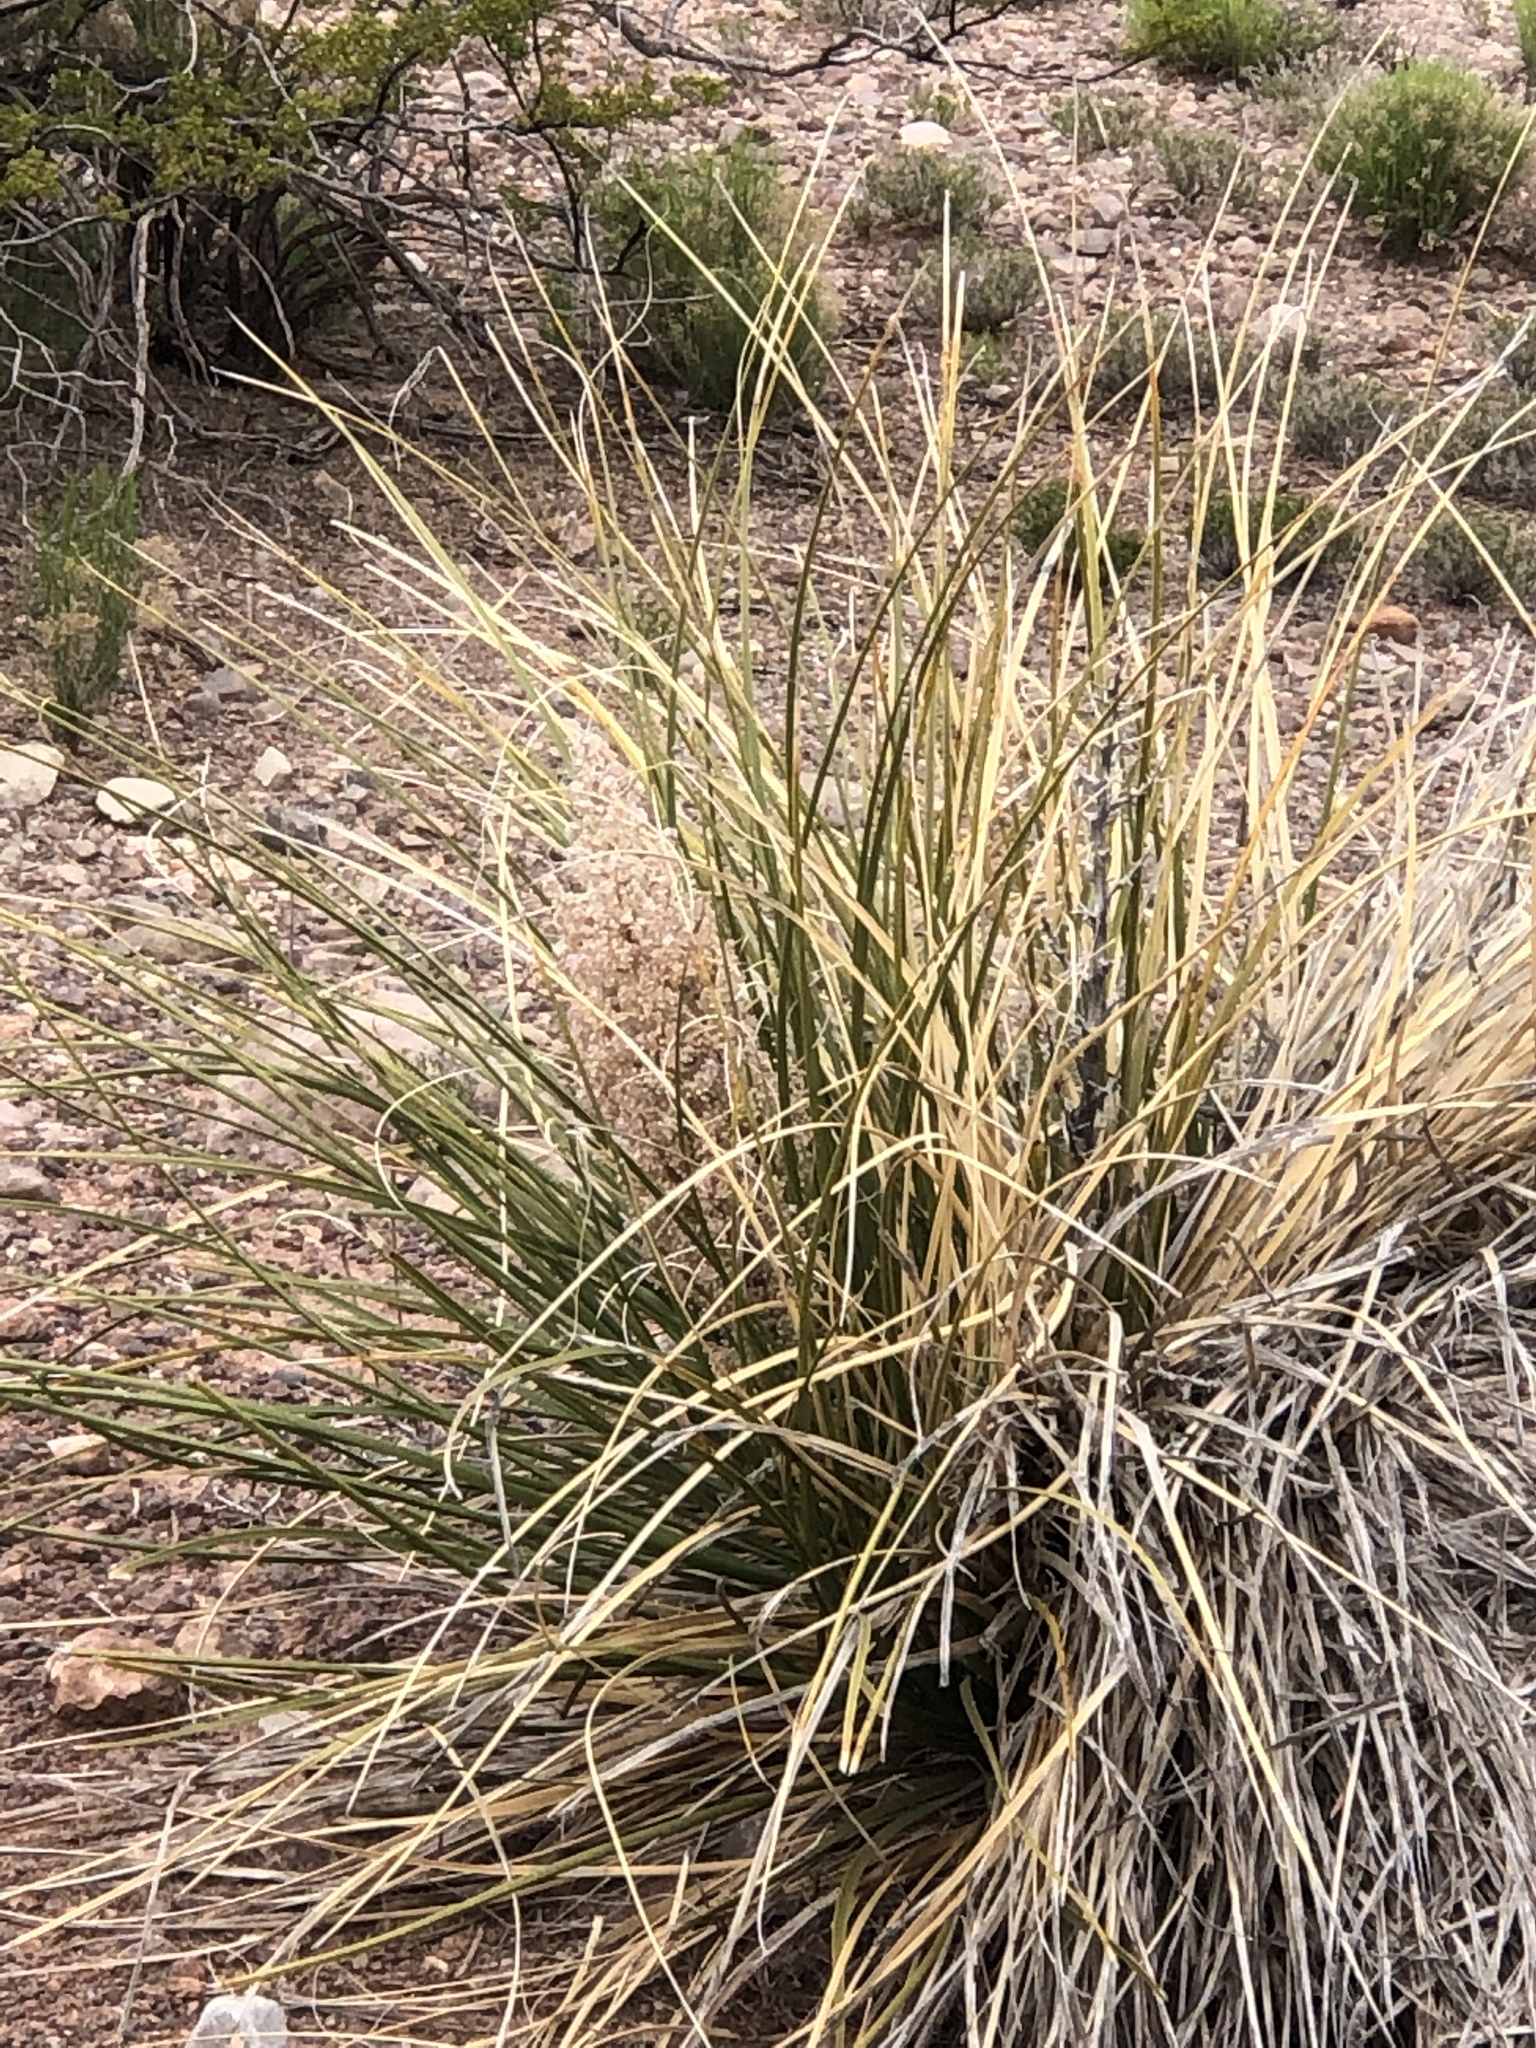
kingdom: Plantae
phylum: Tracheophyta
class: Liliopsida
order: Asparagales
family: Asparagaceae
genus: Nolina
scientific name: Nolina texana
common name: Texas sacahuiste
